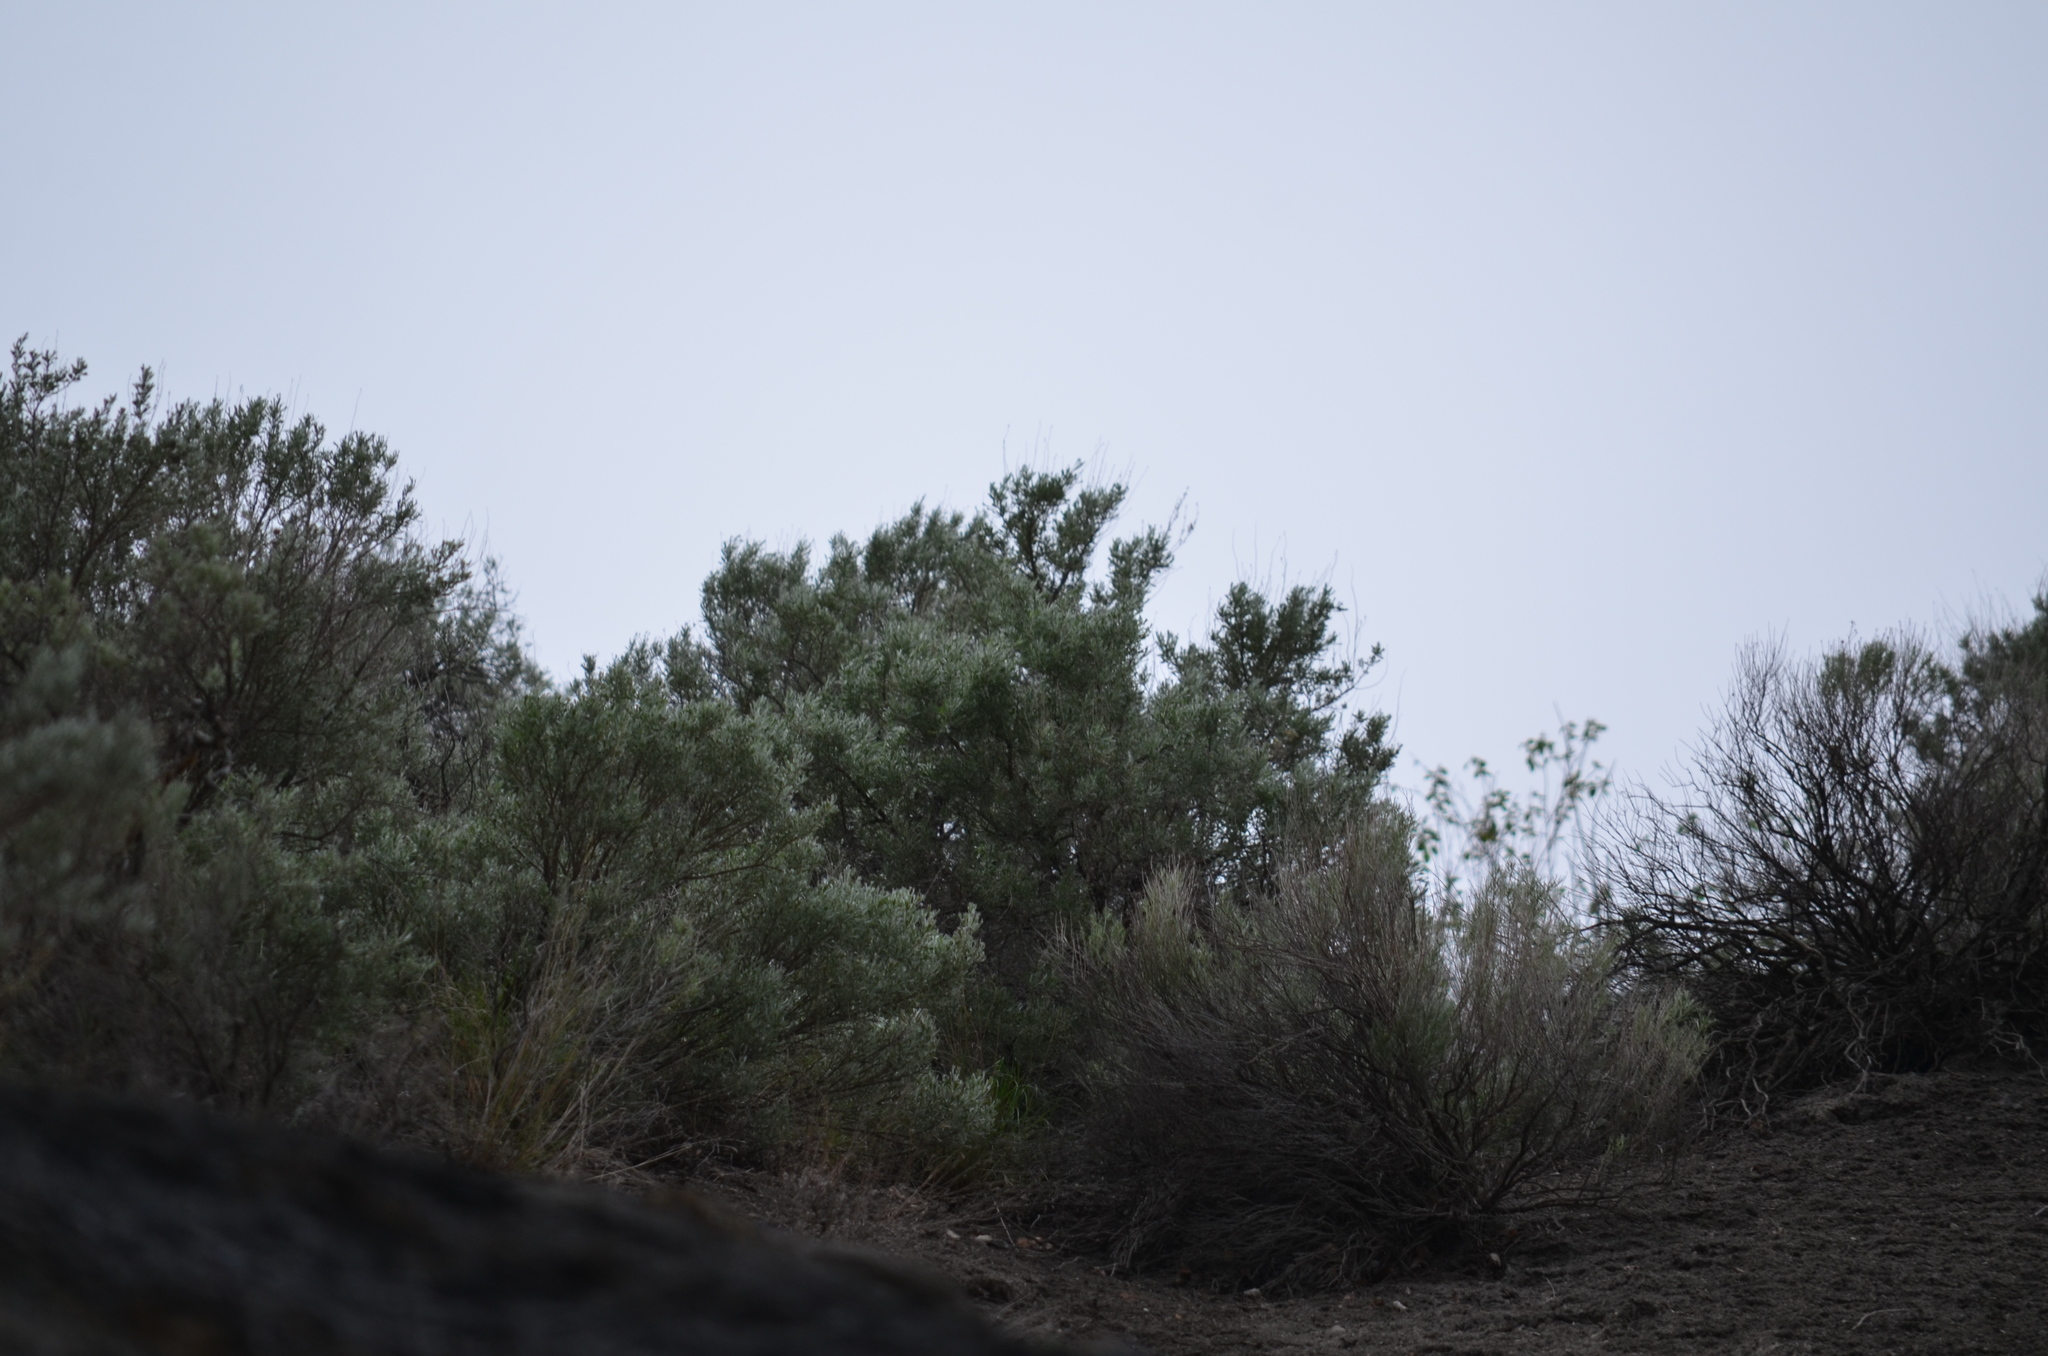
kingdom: Plantae
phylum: Tracheophyta
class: Magnoliopsida
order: Asterales
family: Asteraceae
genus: Artemisia
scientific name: Artemisia tridentata
